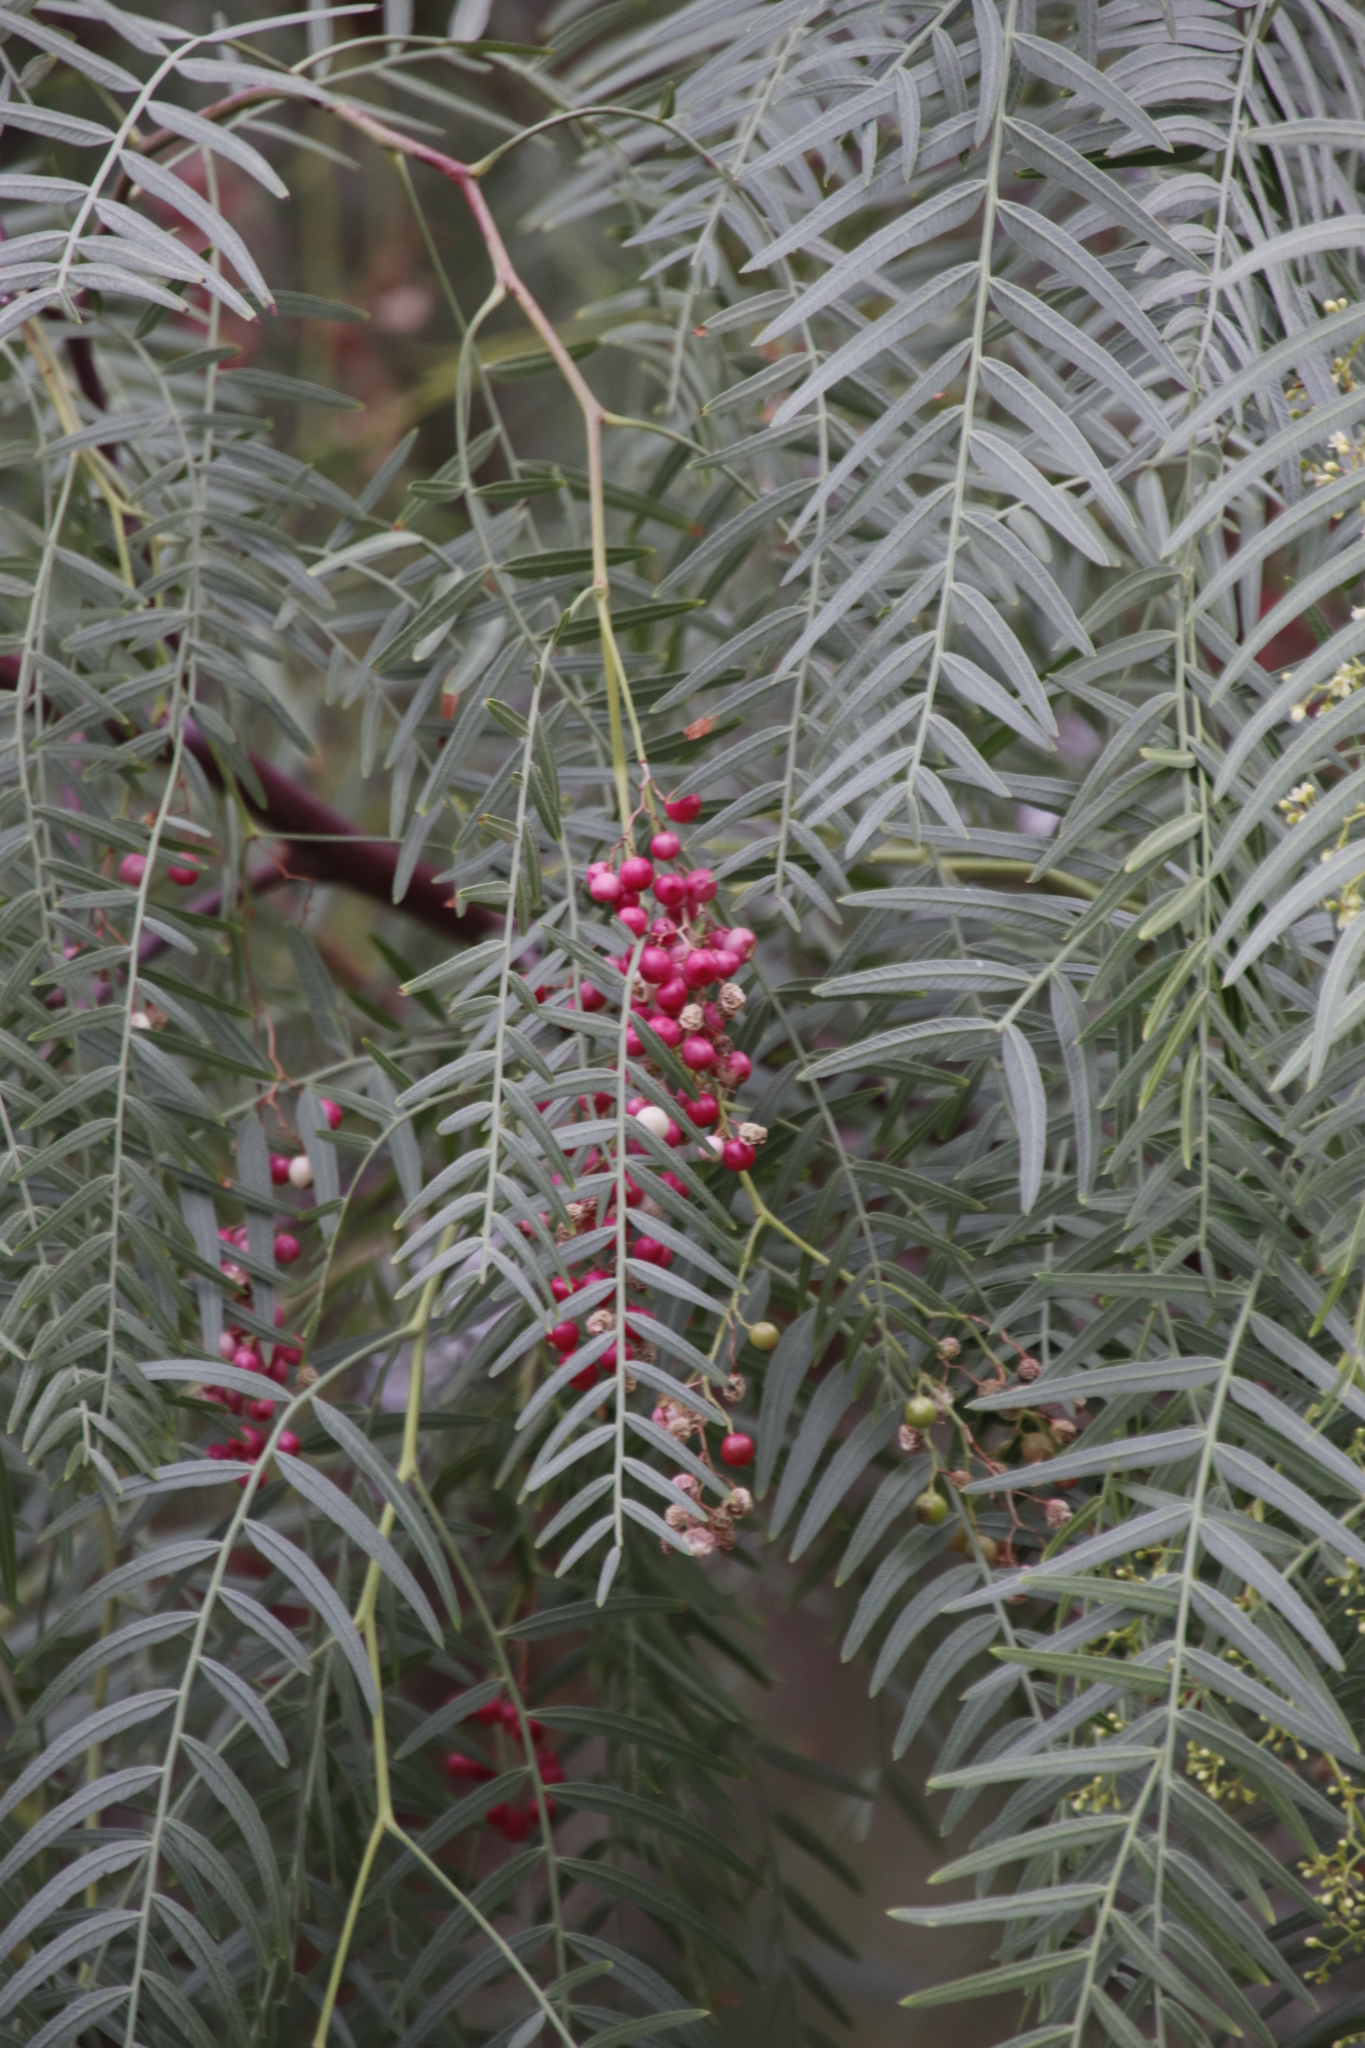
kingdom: Plantae
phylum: Tracheophyta
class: Magnoliopsida
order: Sapindales
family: Anacardiaceae
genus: Schinus
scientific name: Schinus molle
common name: Peruvian peppertree
